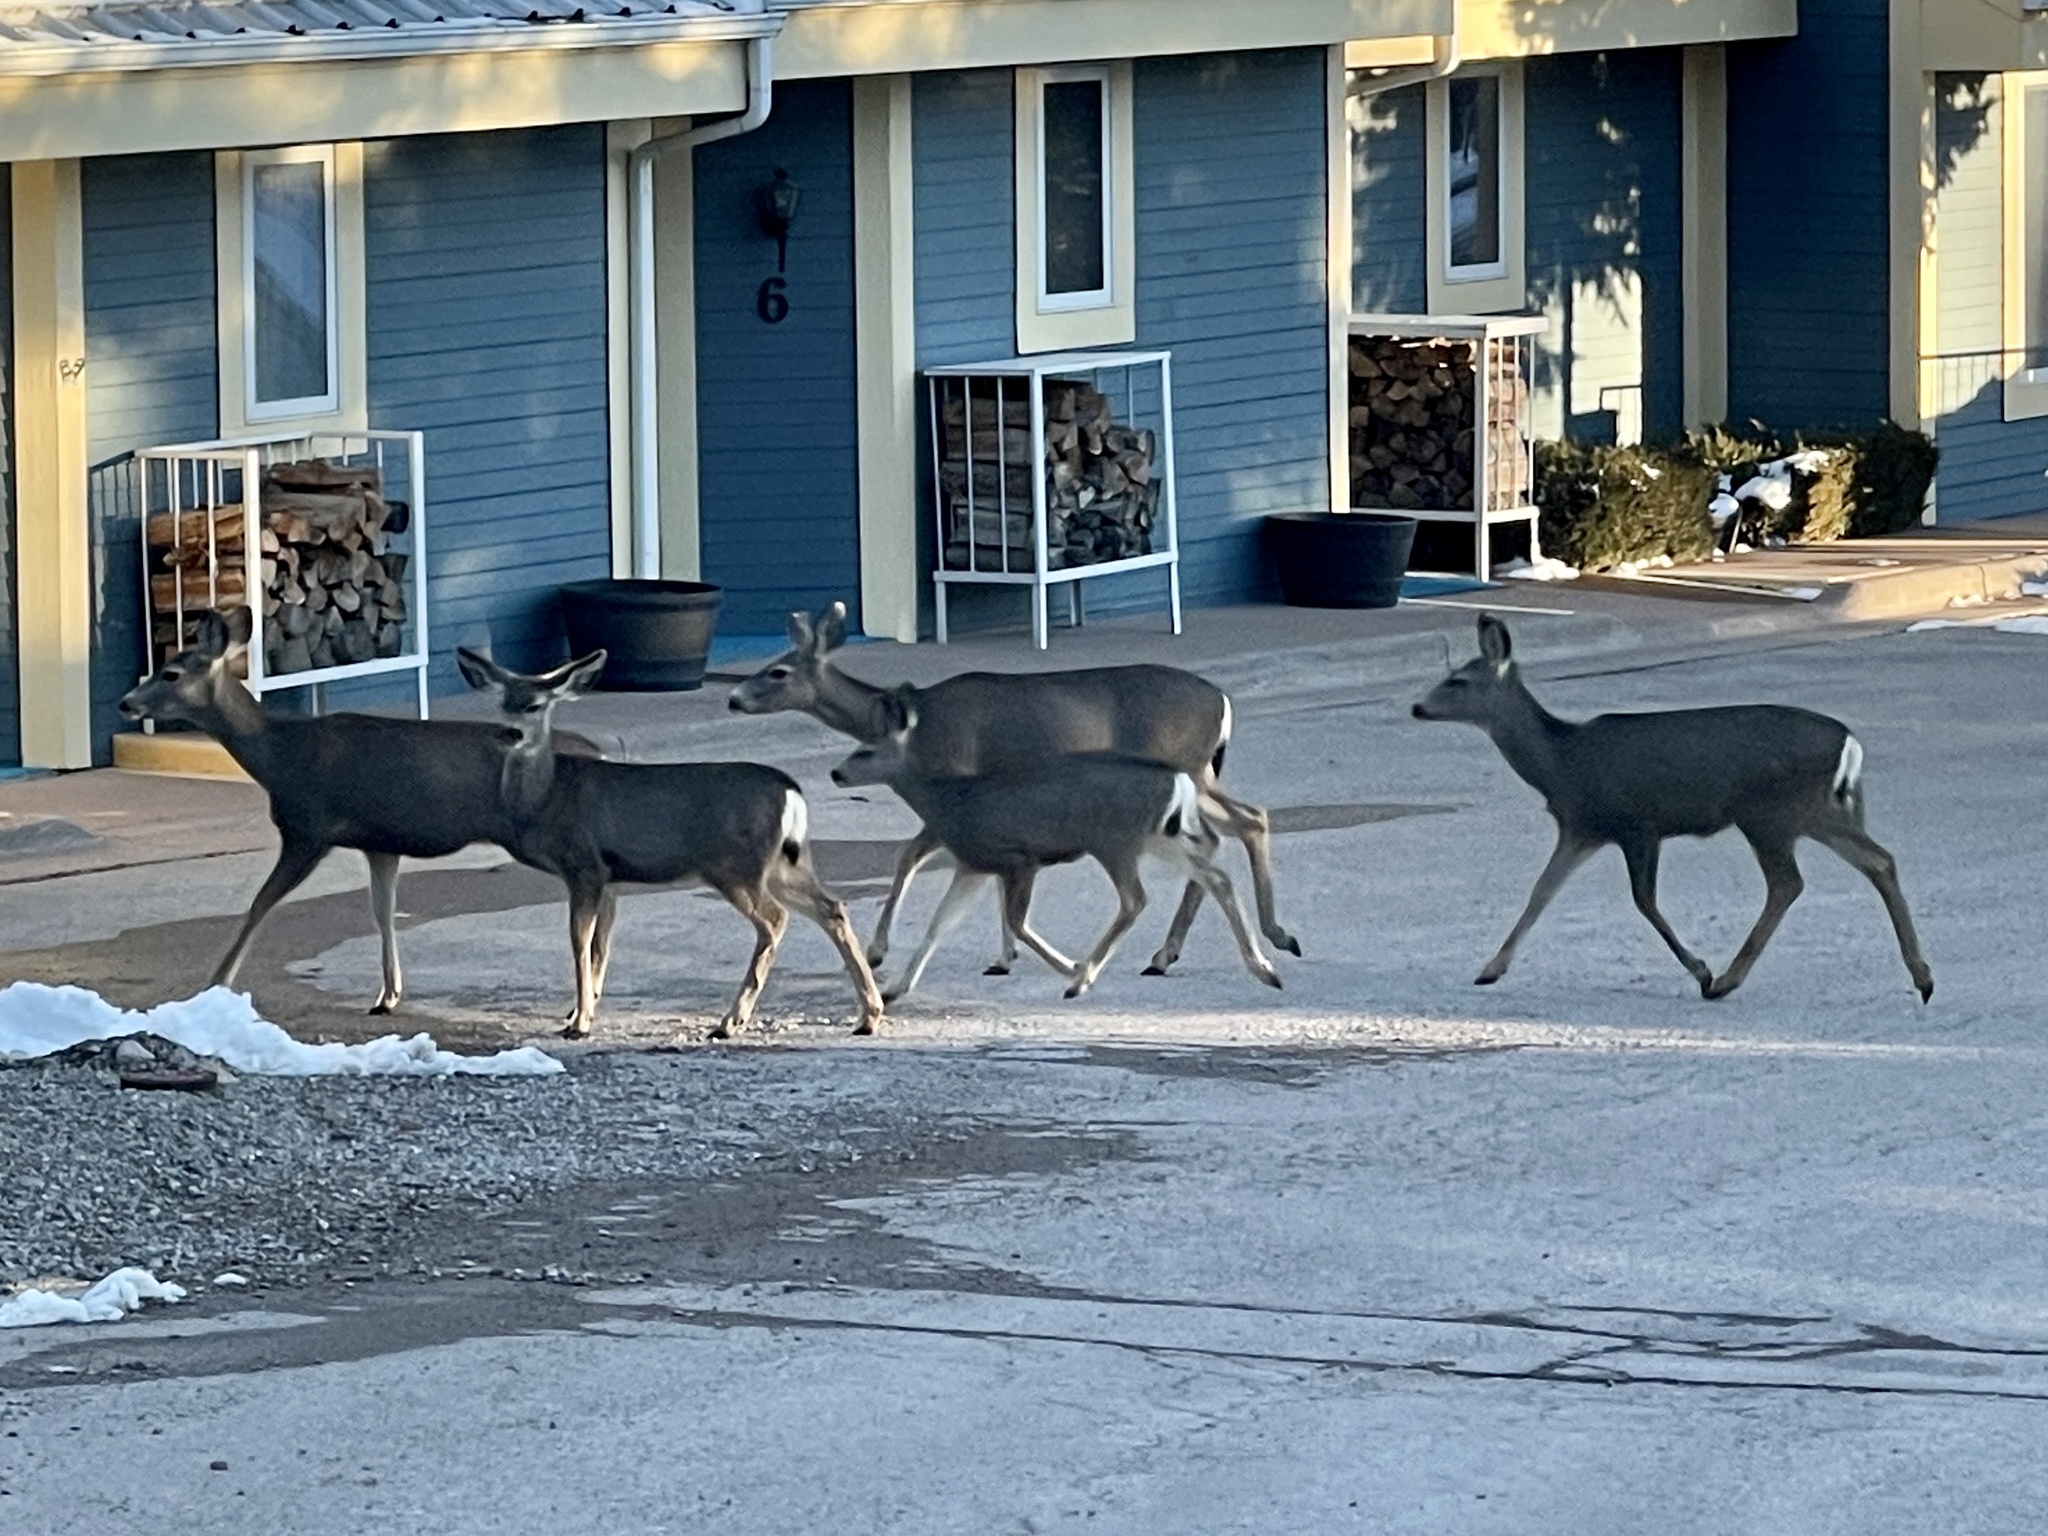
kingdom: Animalia
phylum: Chordata
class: Mammalia
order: Artiodactyla
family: Cervidae
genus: Odocoileus
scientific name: Odocoileus hemionus
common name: Mule deer
